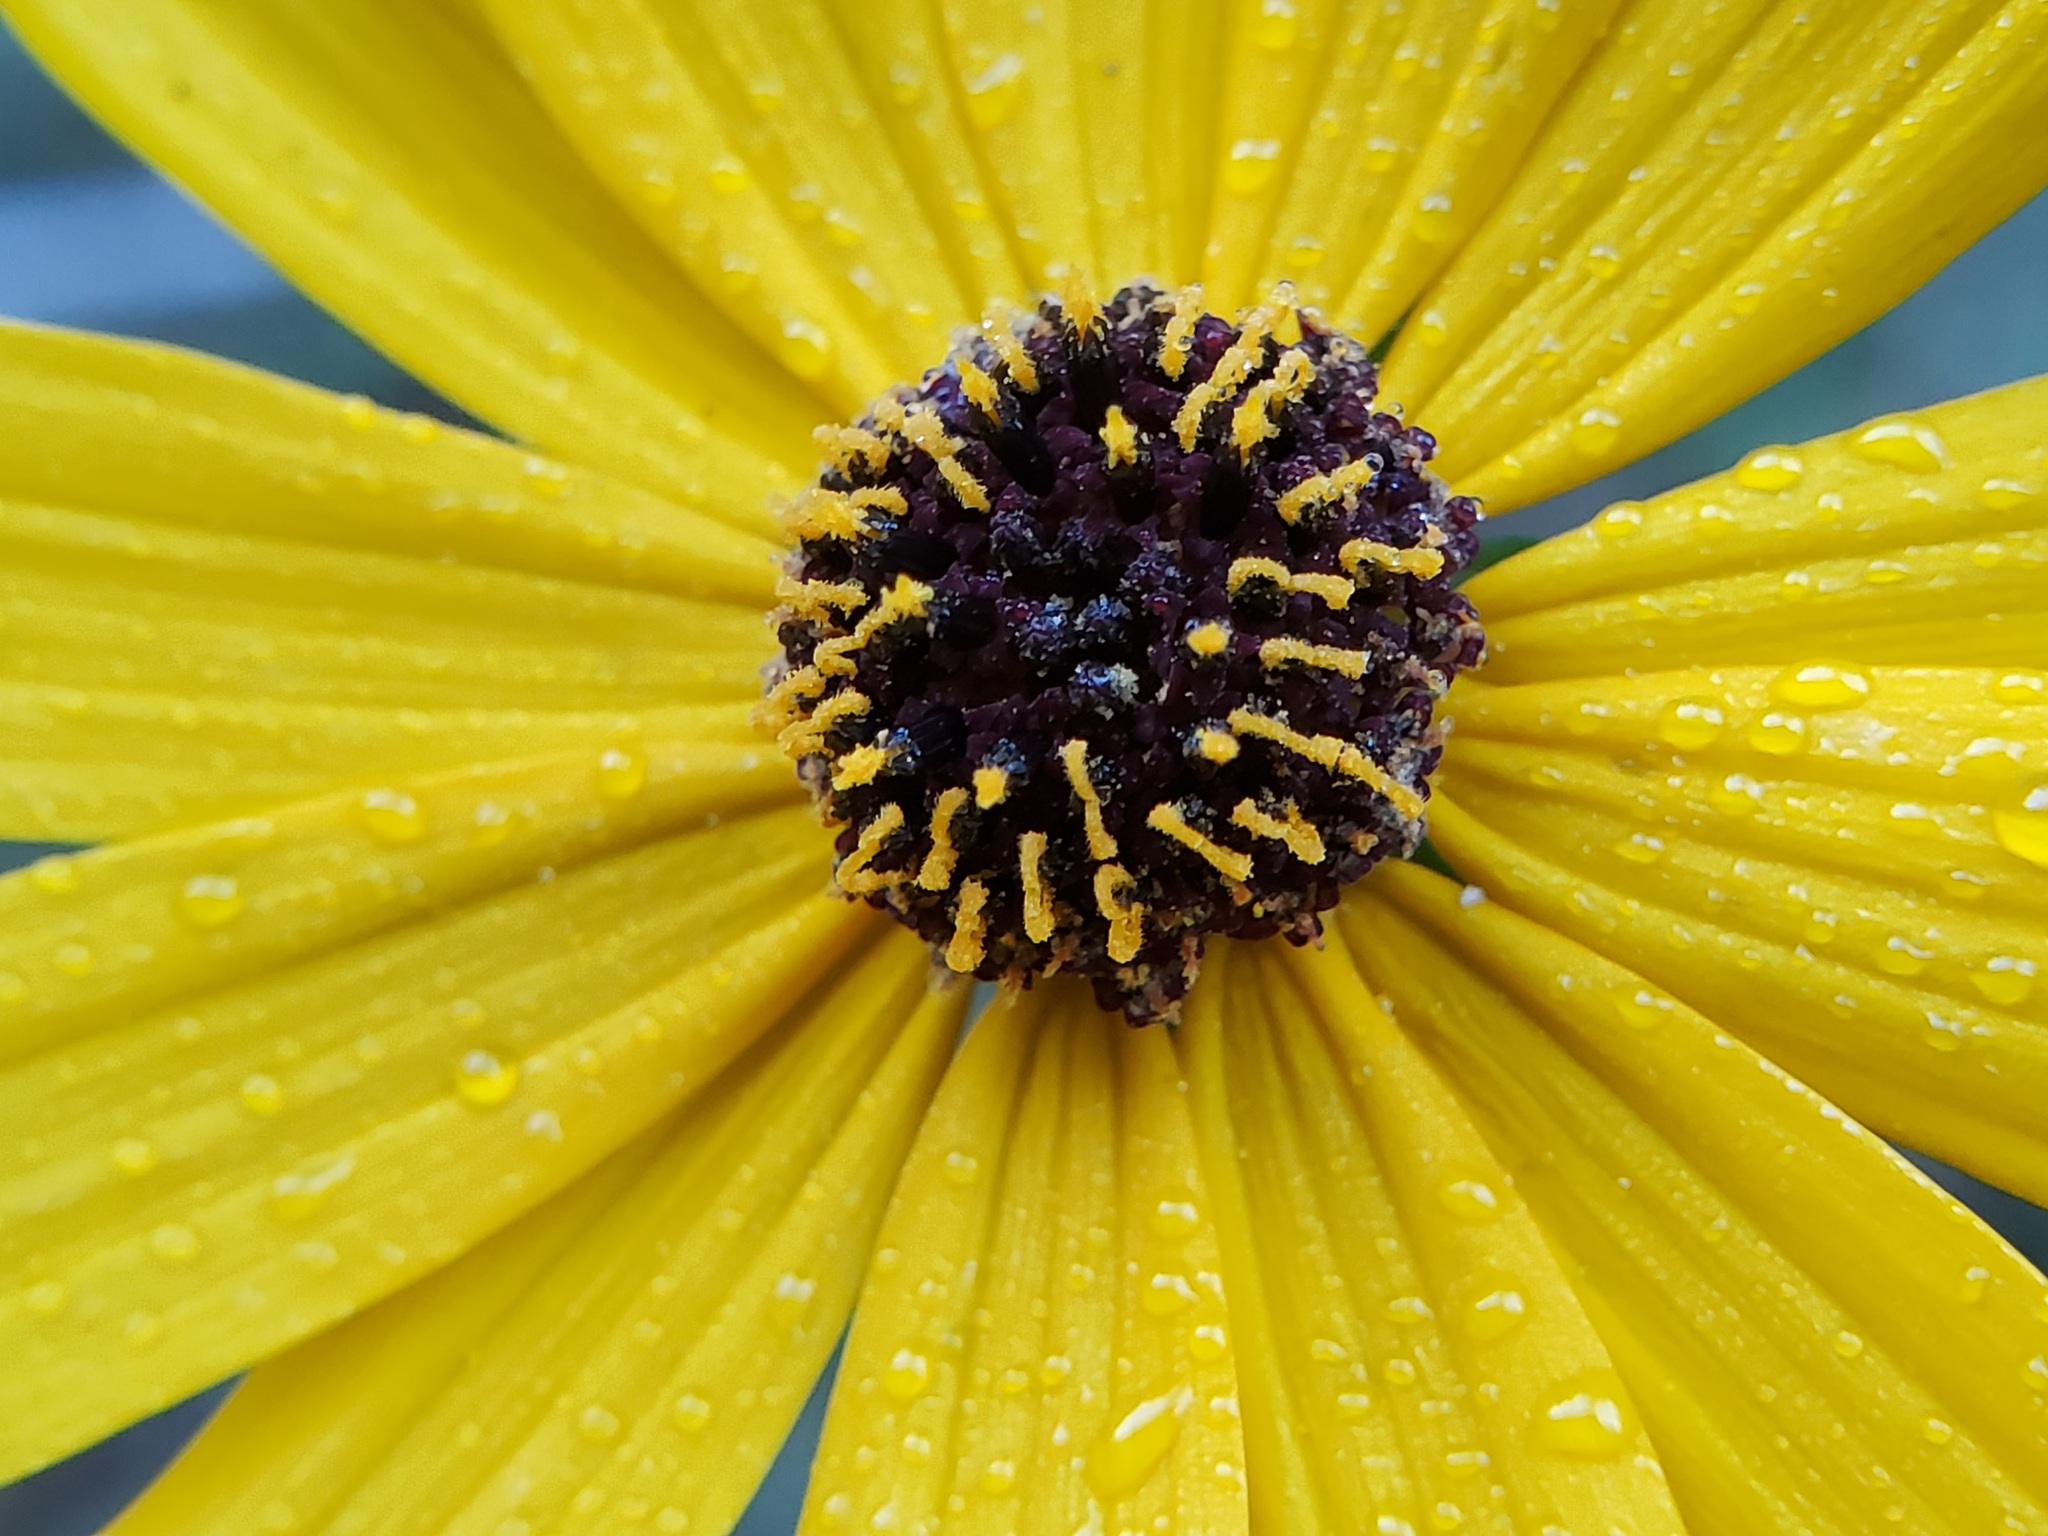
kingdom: Plantae
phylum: Tracheophyta
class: Magnoliopsida
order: Asterales
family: Asteraceae
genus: Helianthus
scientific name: Helianthus angustifolius
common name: Swamp sunflower
